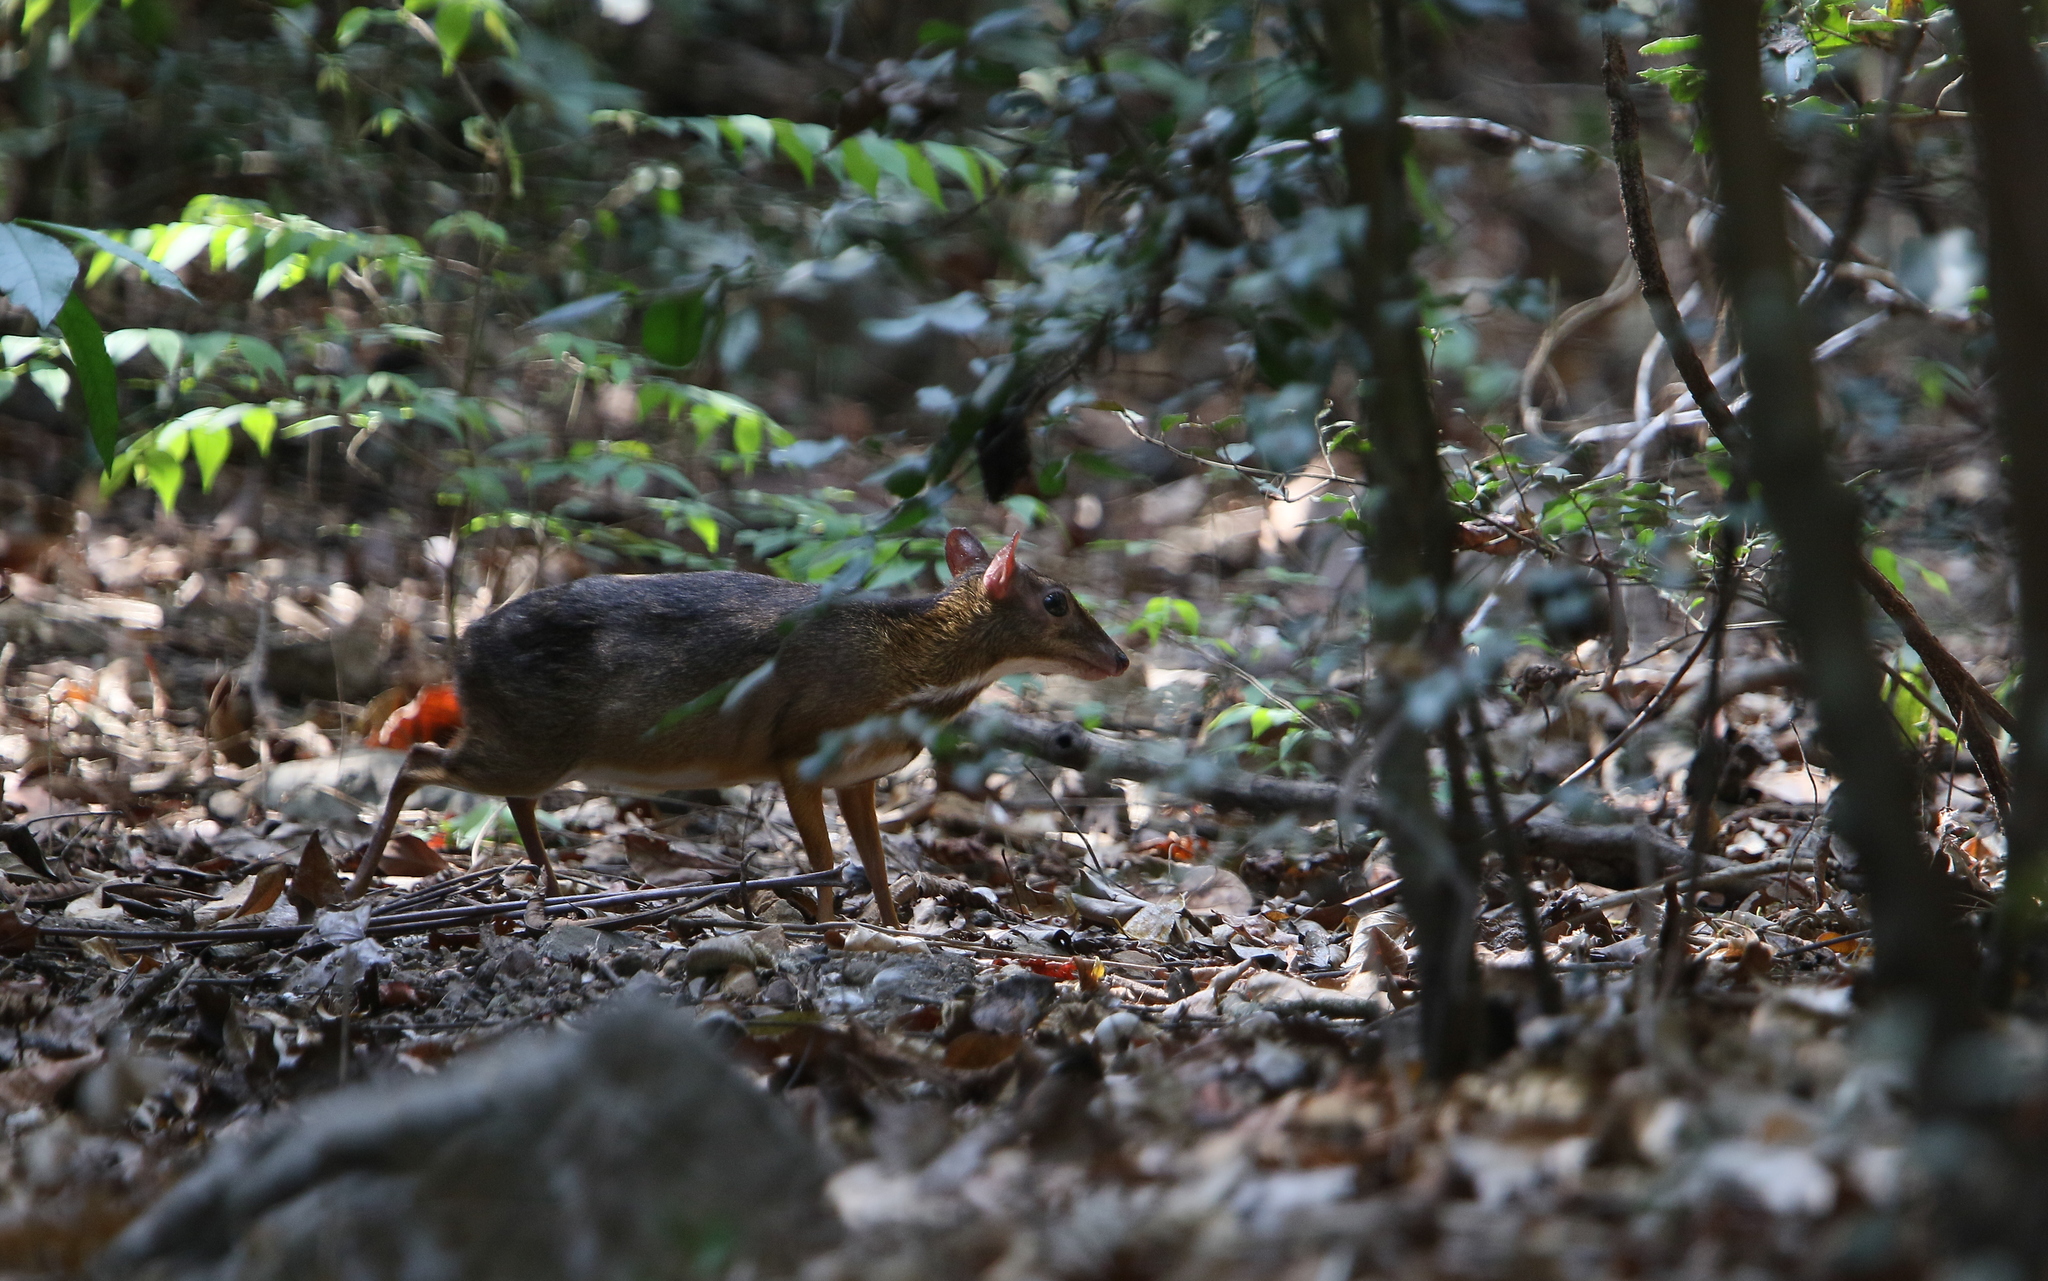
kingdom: Animalia
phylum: Chordata
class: Mammalia
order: Artiodactyla
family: Tragulidae
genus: Tragulus
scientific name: Tragulus kanchil
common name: Lesser mouse-deer
